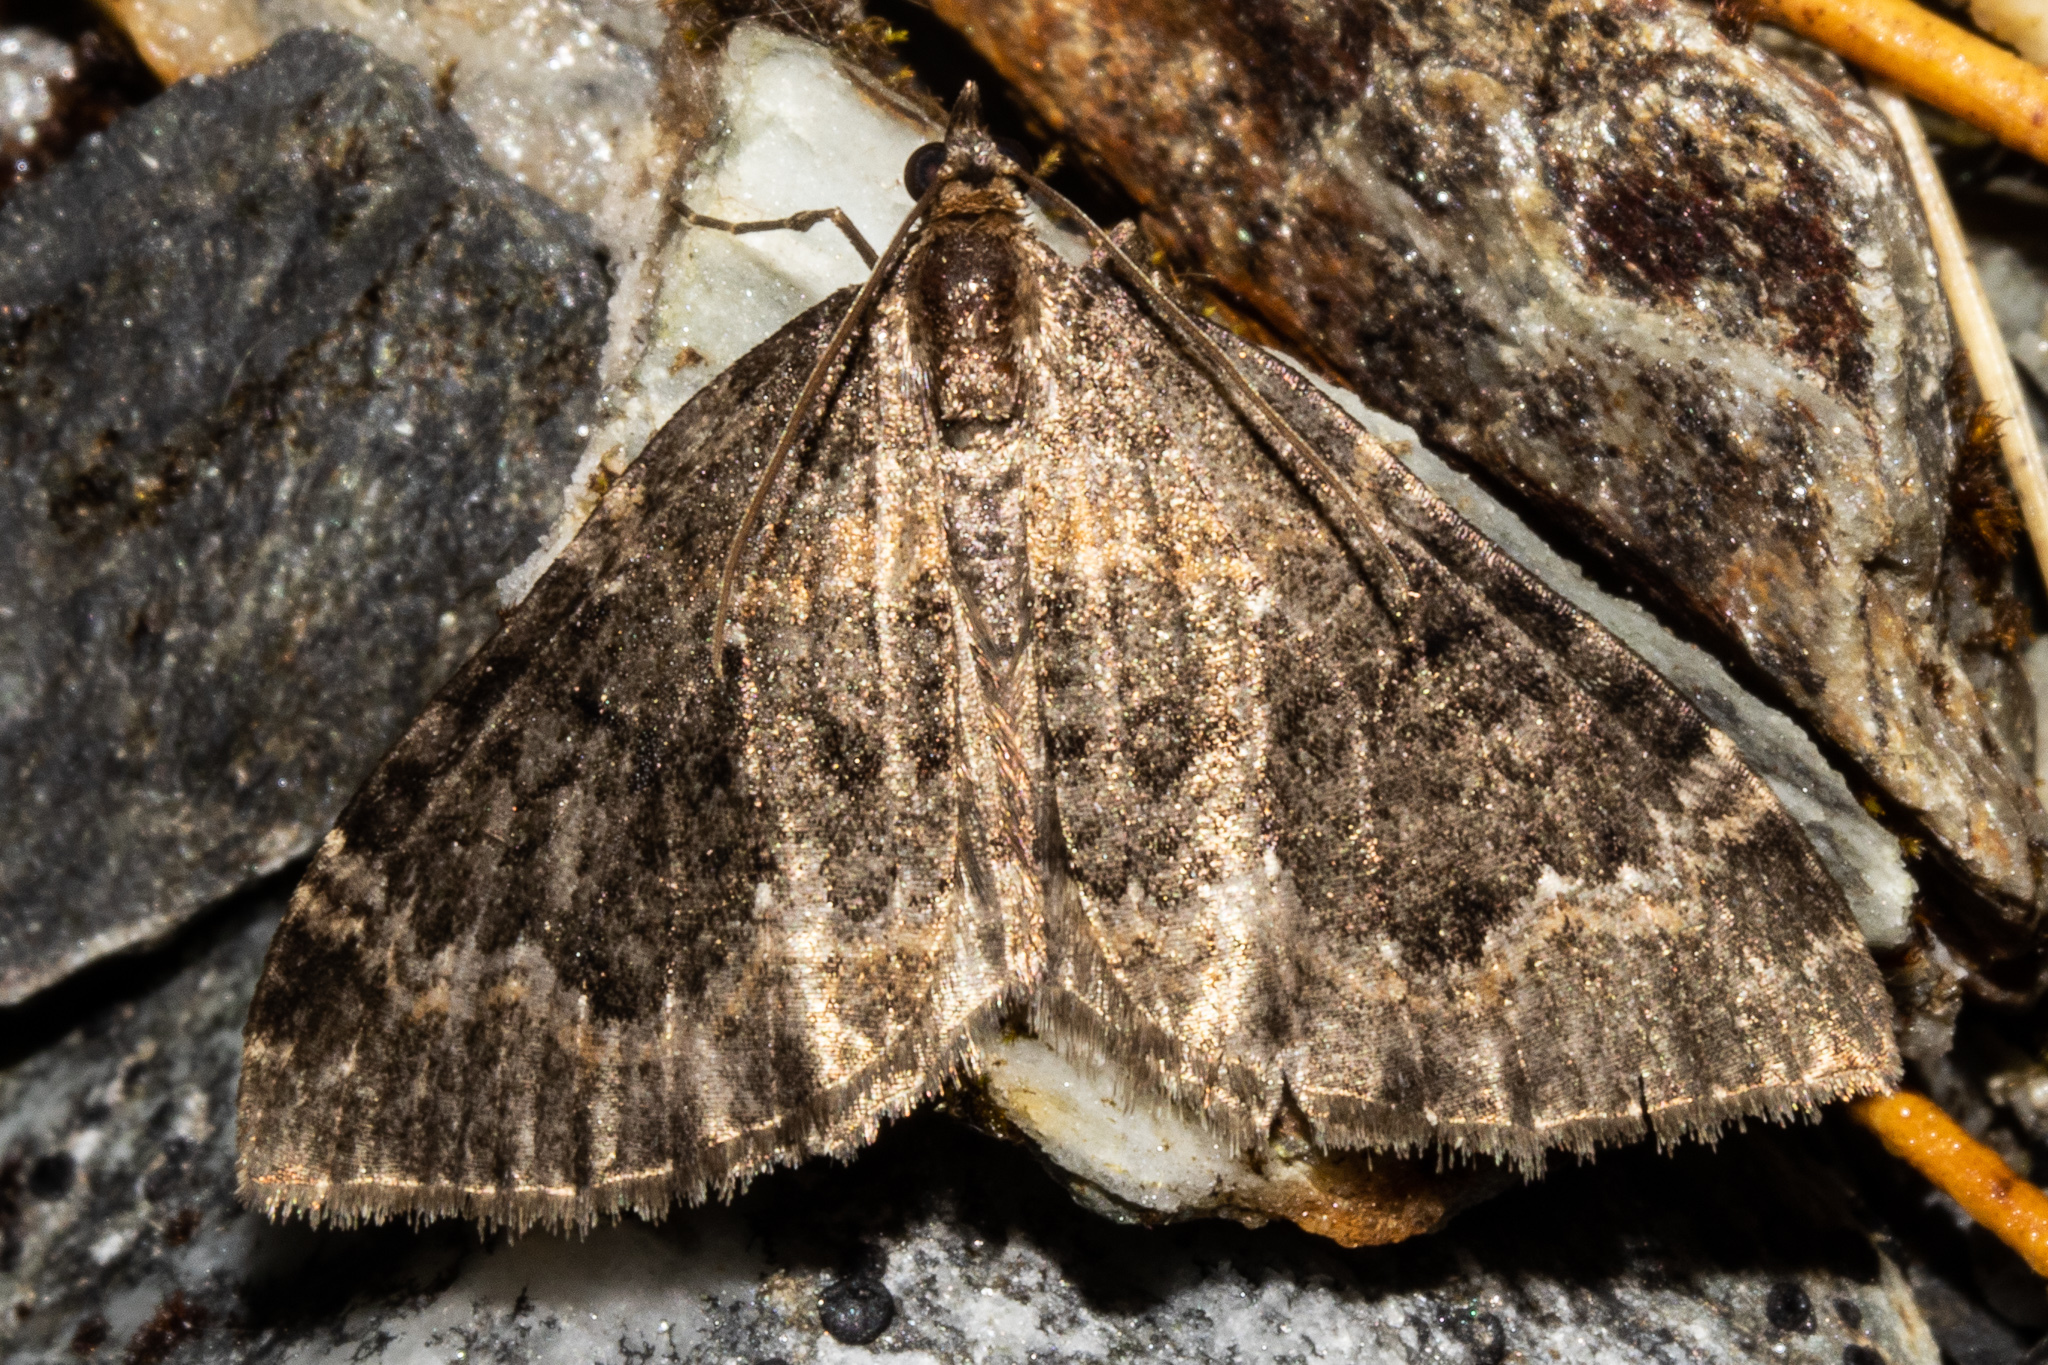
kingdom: Animalia
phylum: Arthropoda
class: Insecta
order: Lepidoptera
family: Geometridae
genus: Hydriomena
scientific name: Hydriomena hemizona
